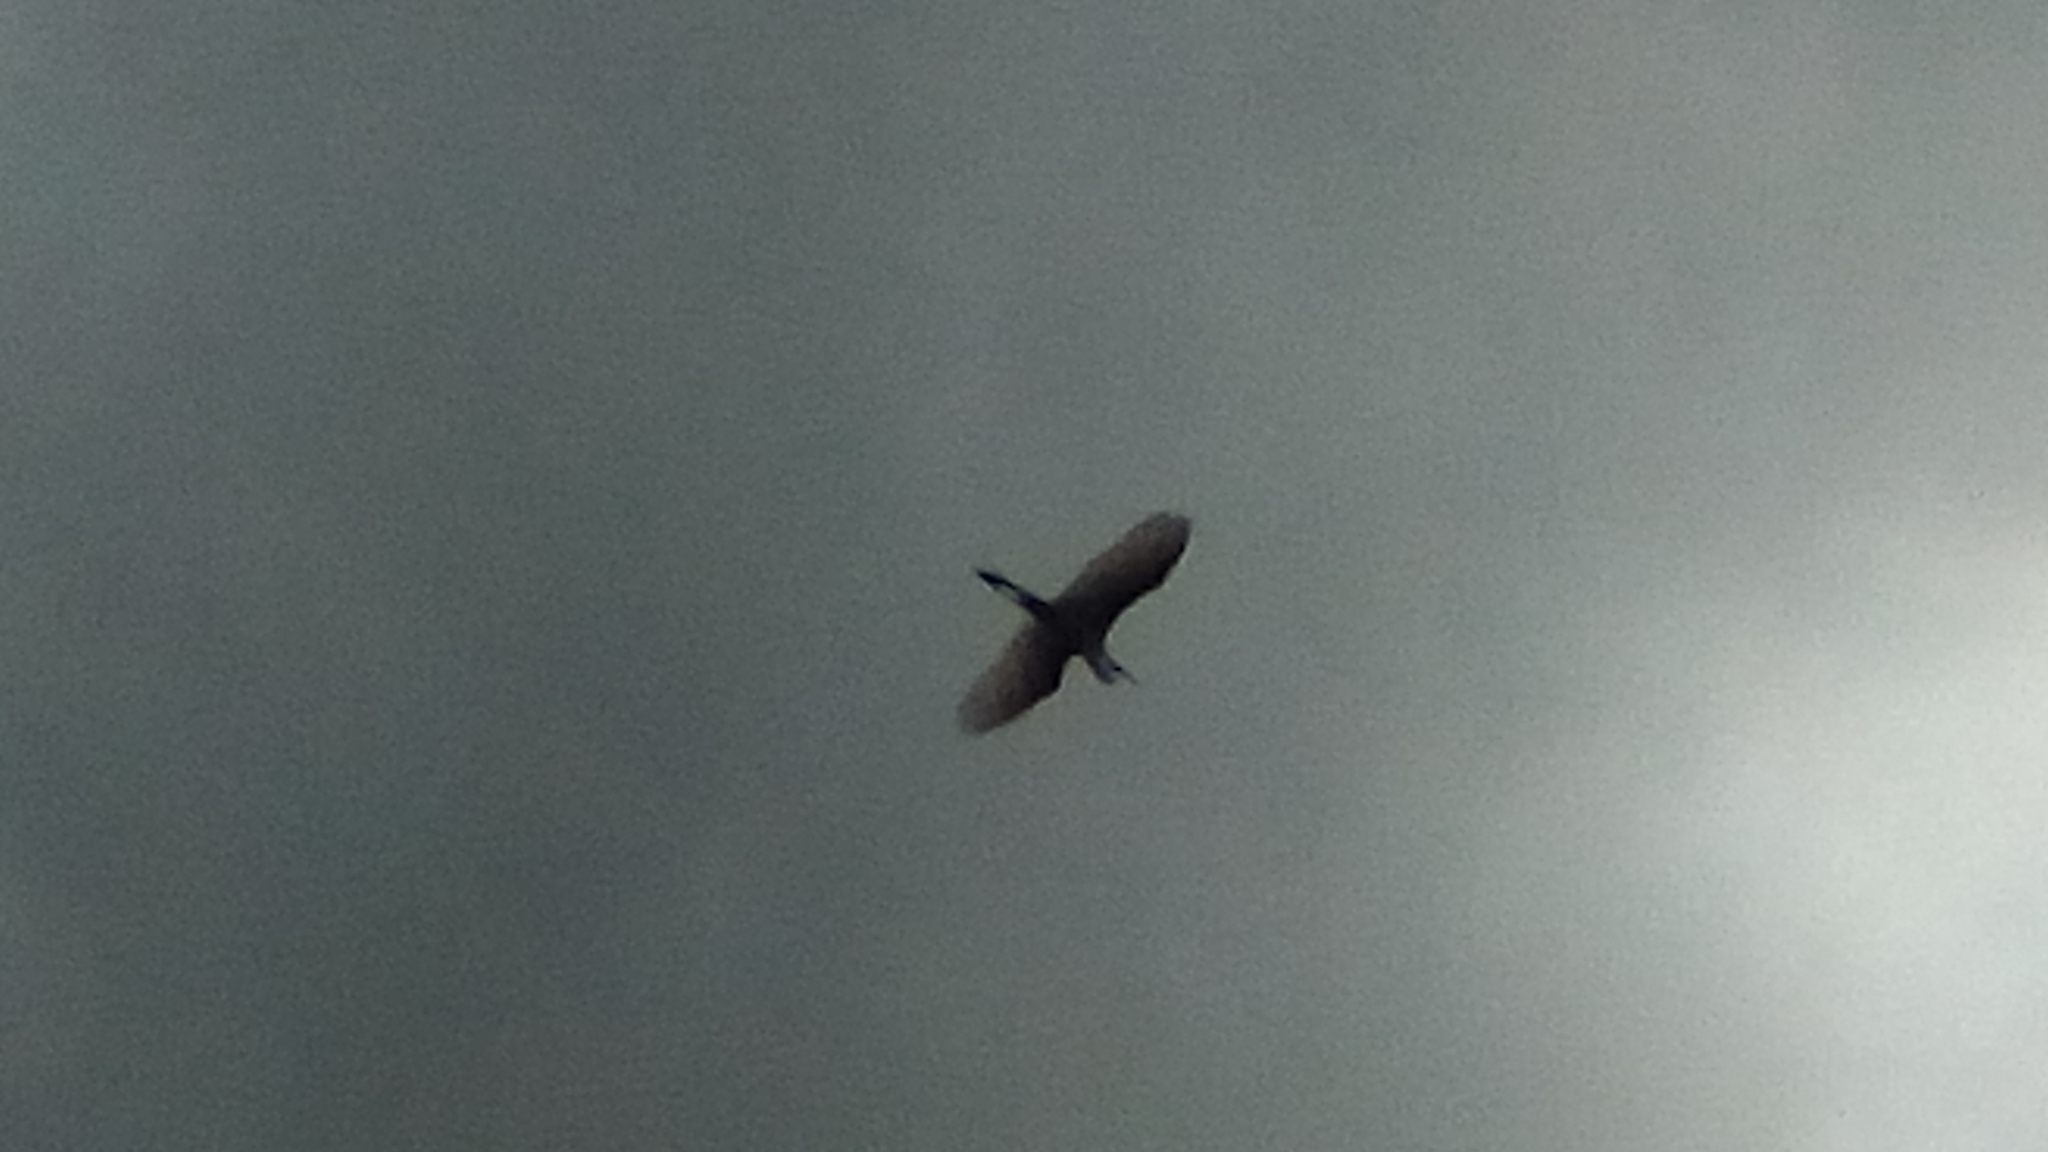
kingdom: Animalia
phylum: Chordata
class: Aves
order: Pelecaniformes
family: Ardeidae
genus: Ardea
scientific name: Ardea alba
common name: Great egret
